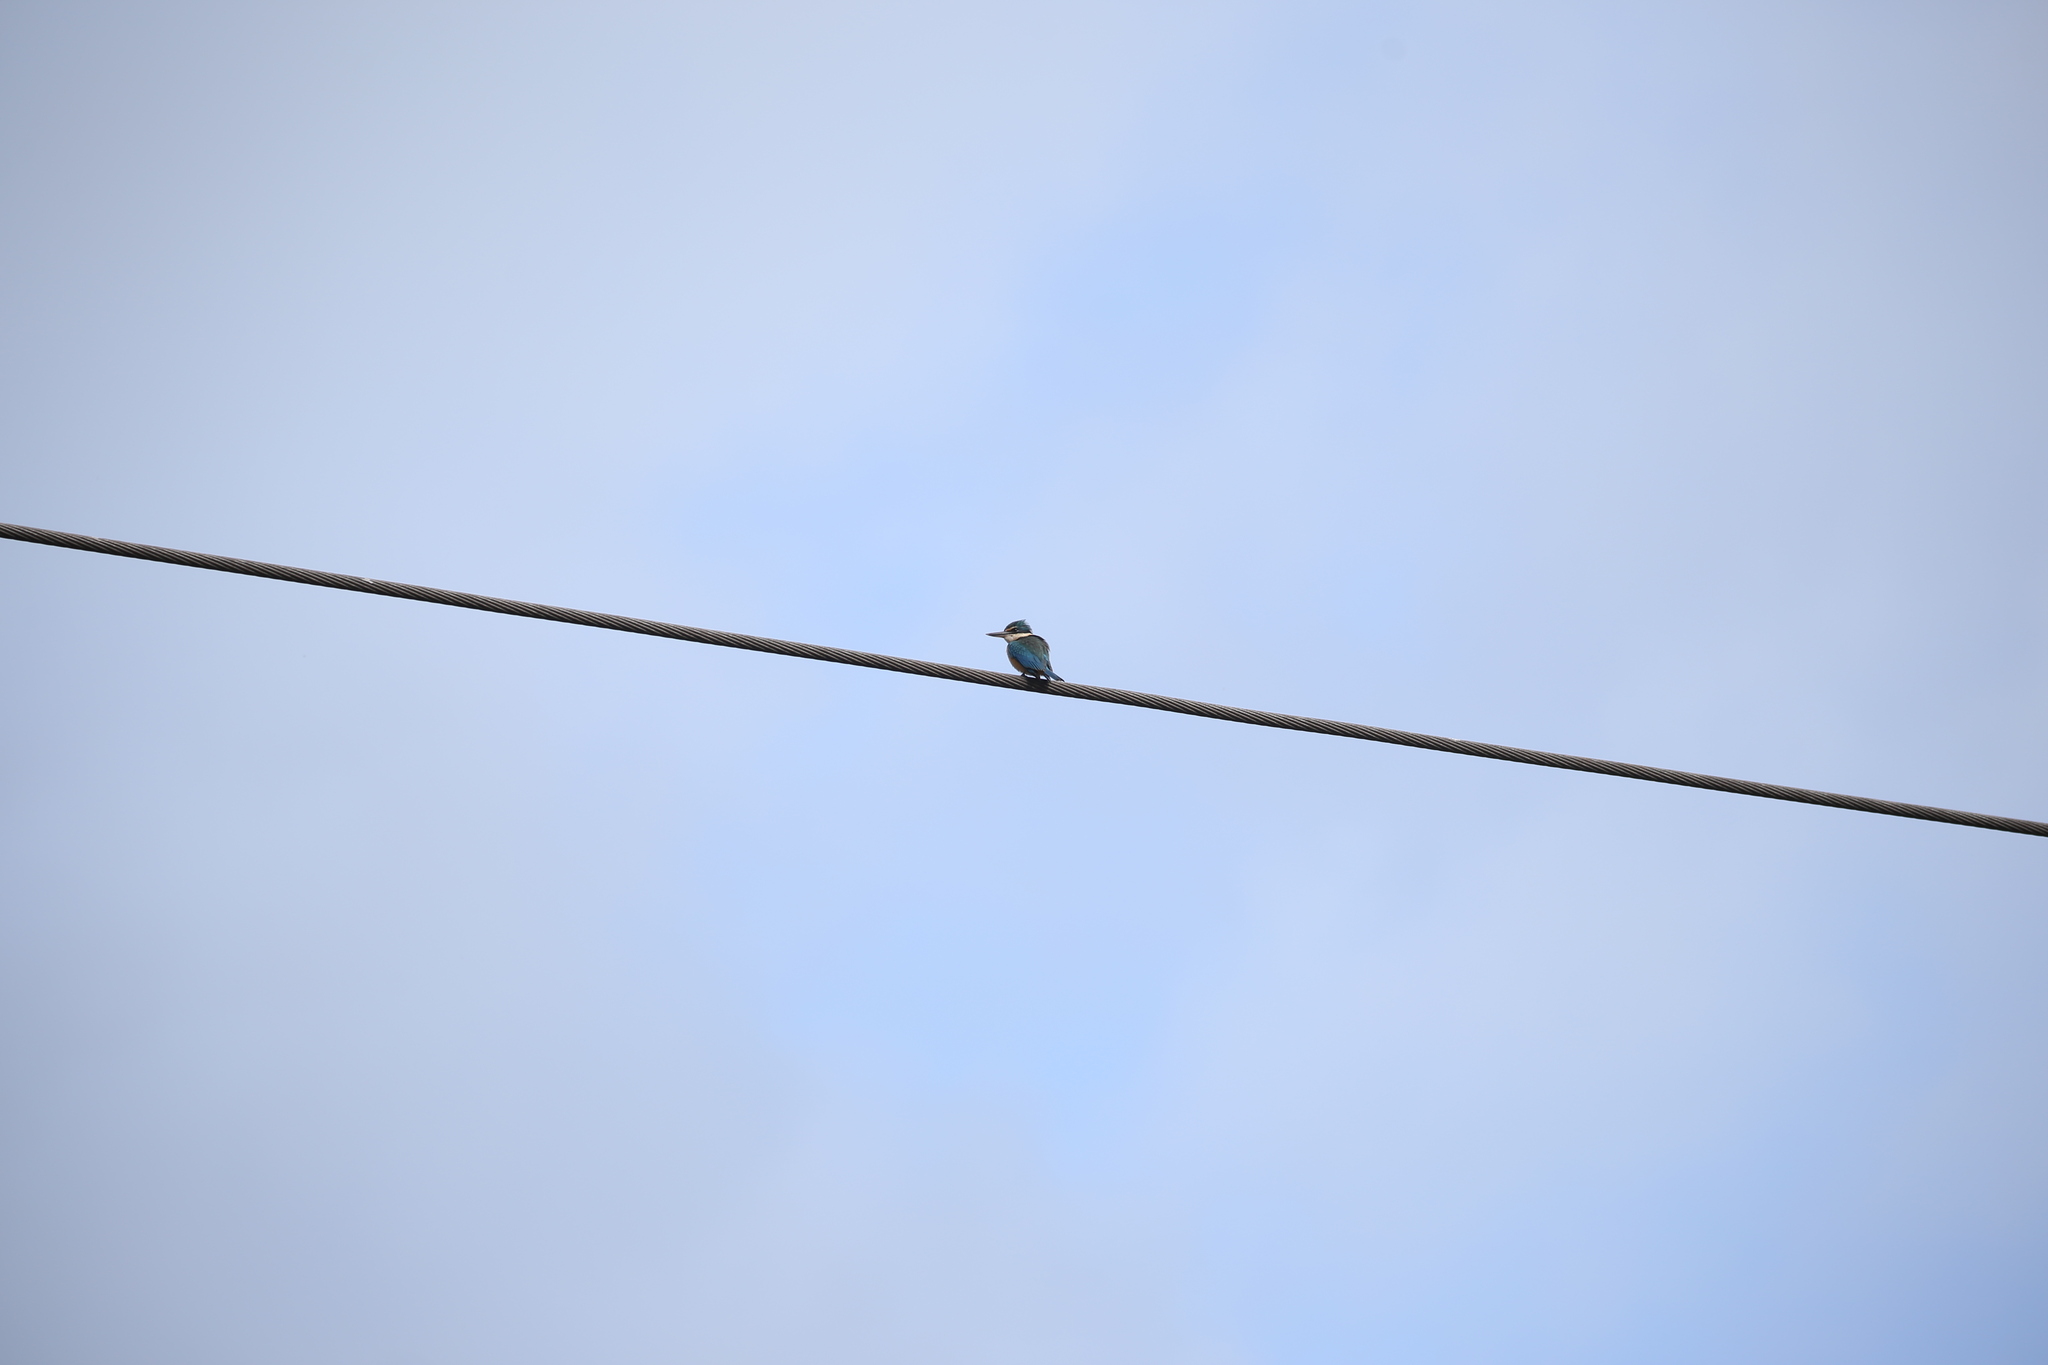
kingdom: Animalia
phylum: Chordata
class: Aves
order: Coraciiformes
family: Alcedinidae
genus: Todiramphus
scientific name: Todiramphus sanctus
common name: Sacred kingfisher
